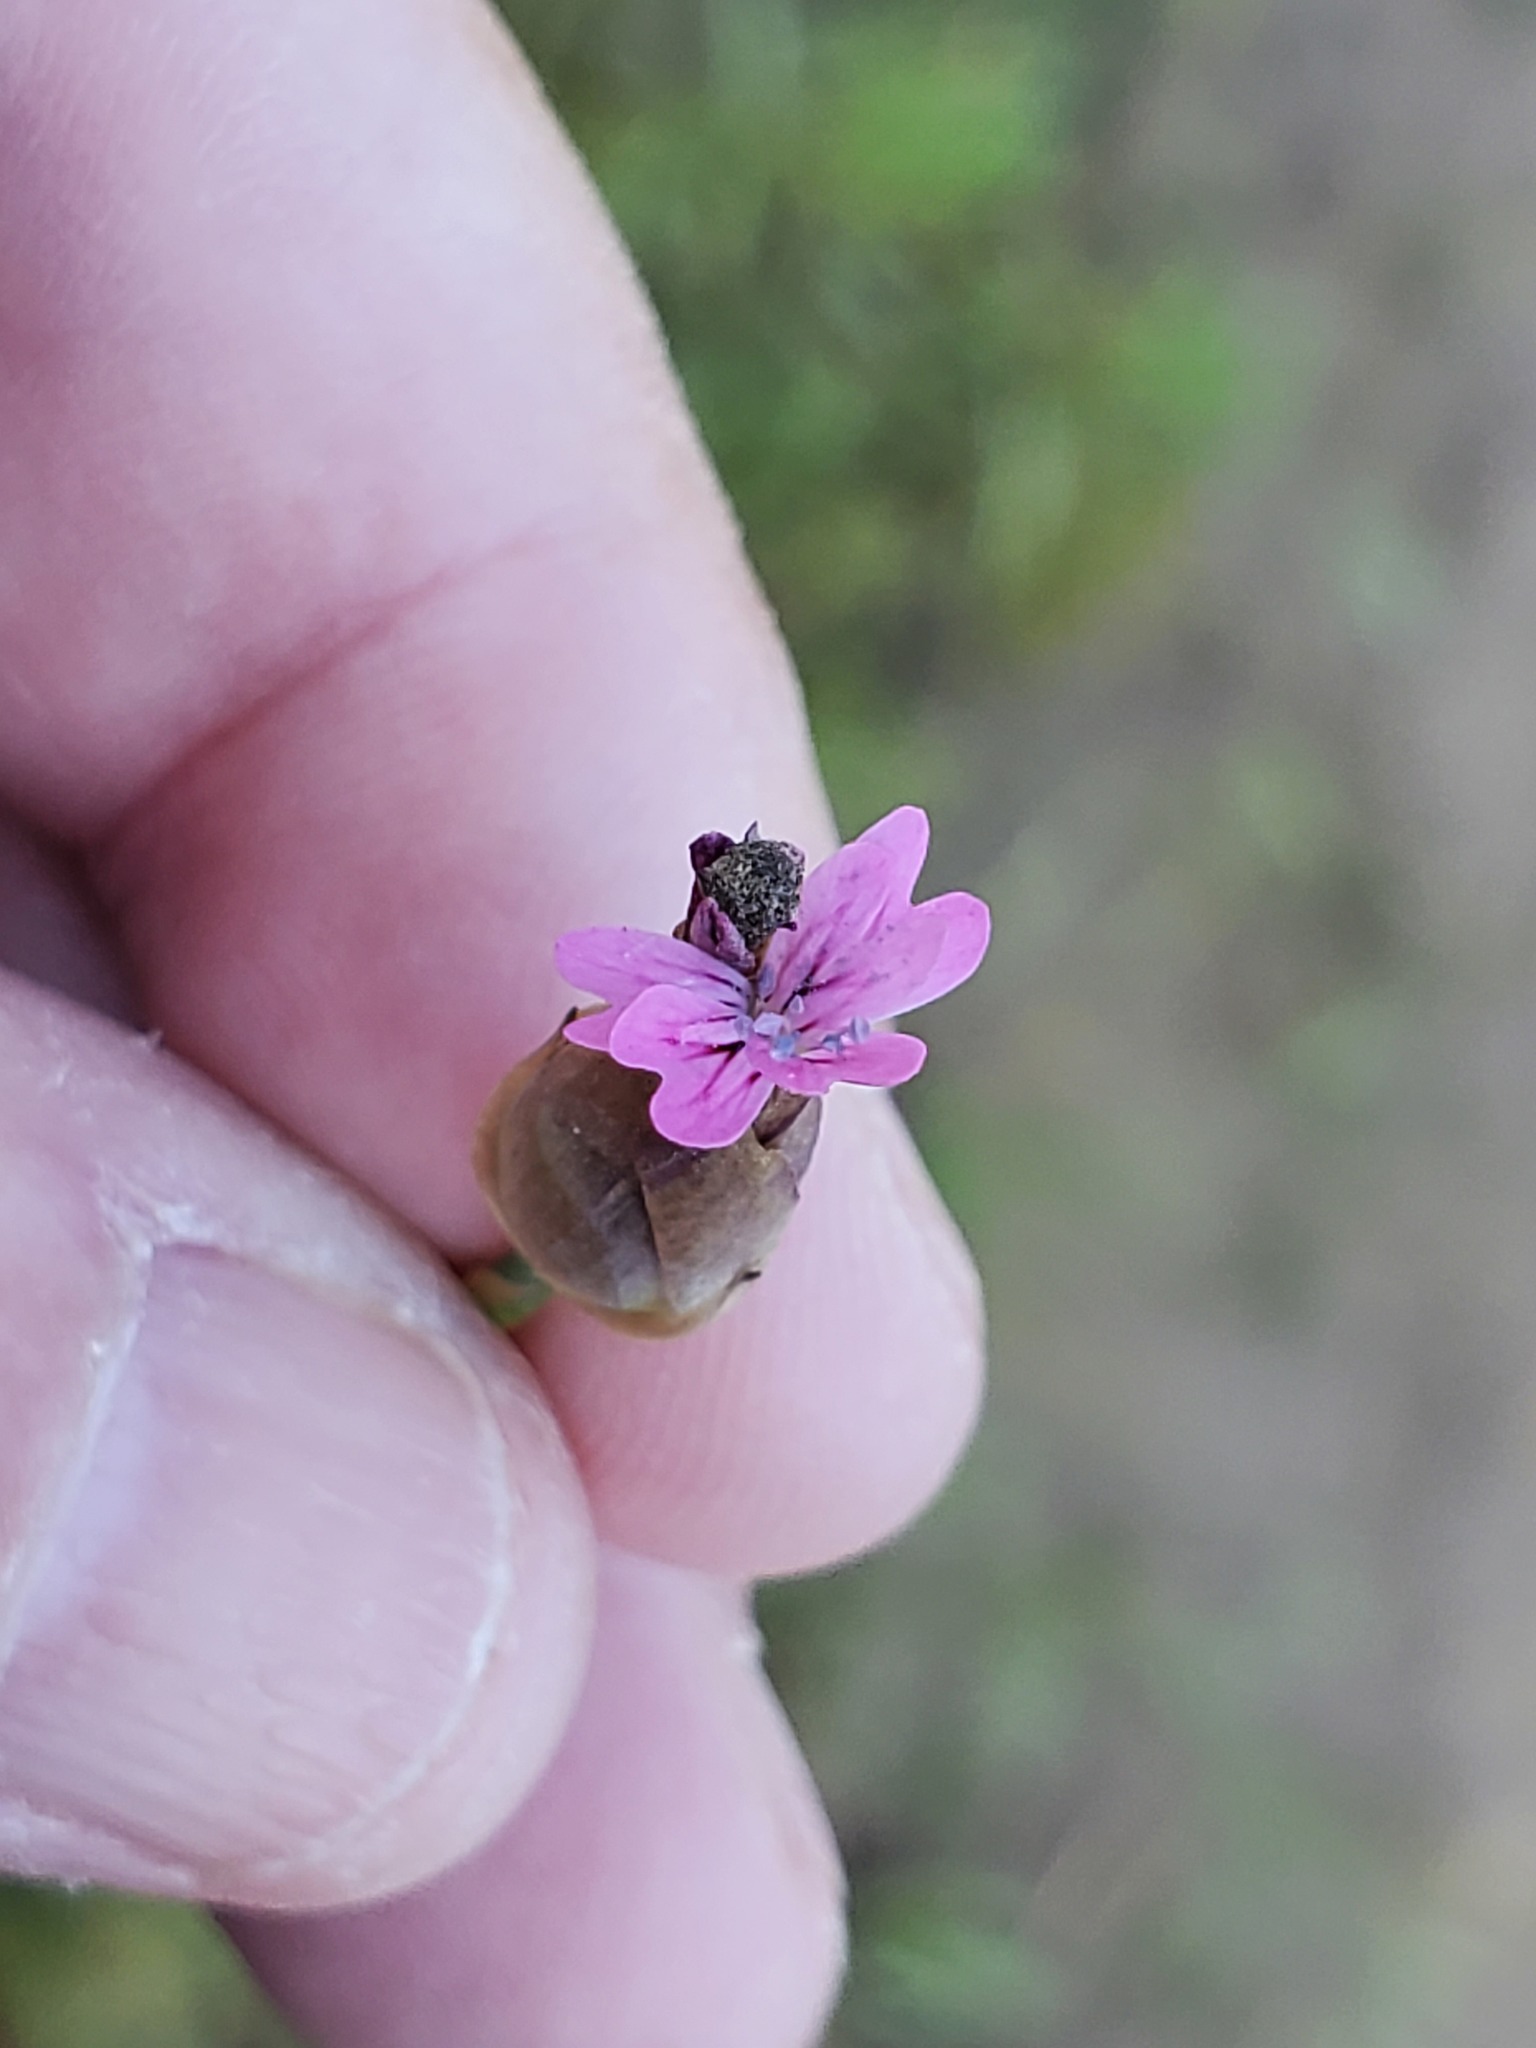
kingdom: Plantae
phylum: Tracheophyta
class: Magnoliopsida
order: Caryophyllales
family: Caryophyllaceae
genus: Petrorhagia
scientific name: Petrorhagia dubia
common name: Hairypink
